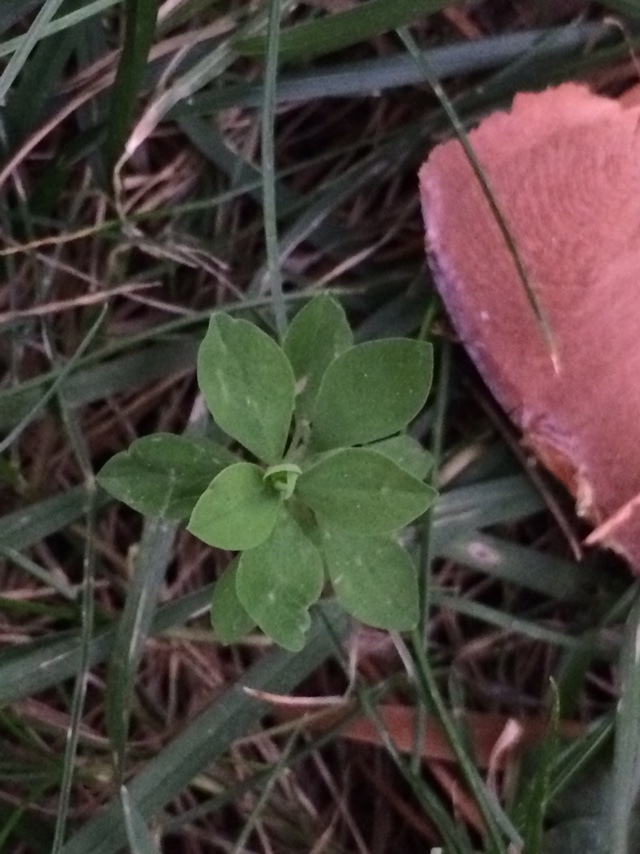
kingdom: Plantae
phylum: Tracheophyta
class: Magnoliopsida
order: Malpighiales
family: Euphorbiaceae
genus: Euphorbia
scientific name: Euphorbia peplus
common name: Petty spurge
